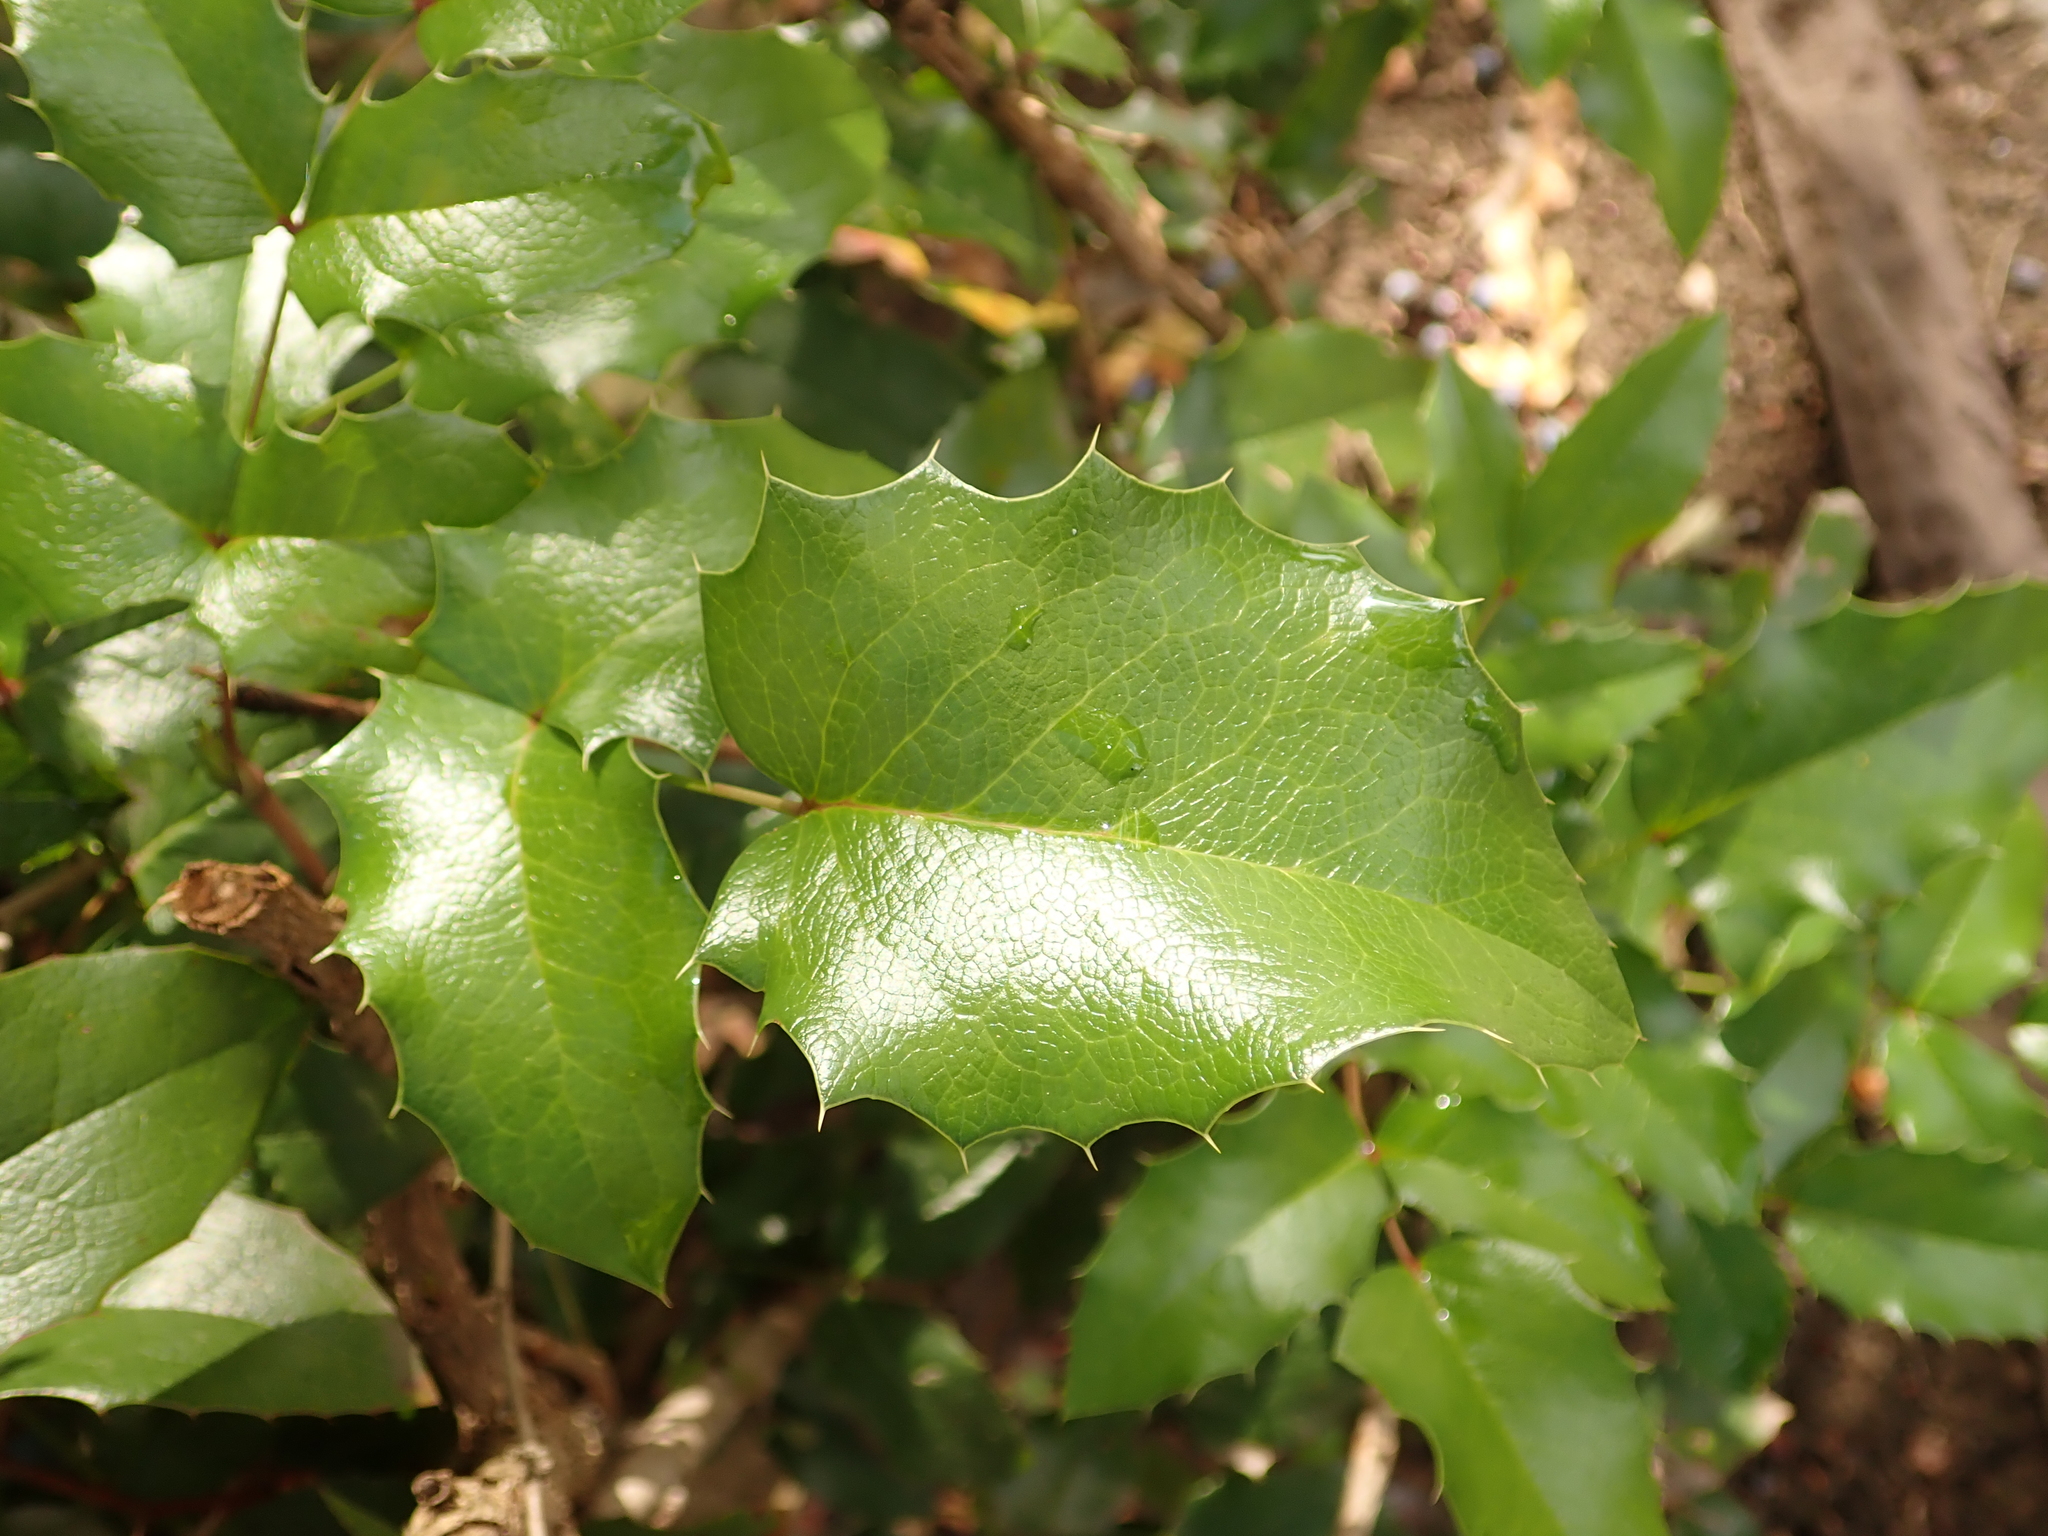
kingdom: Plantae
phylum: Tracheophyta
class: Magnoliopsida
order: Ranunculales
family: Berberidaceae
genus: Mahonia
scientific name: Mahonia aquifolium
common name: Oregon-grape
